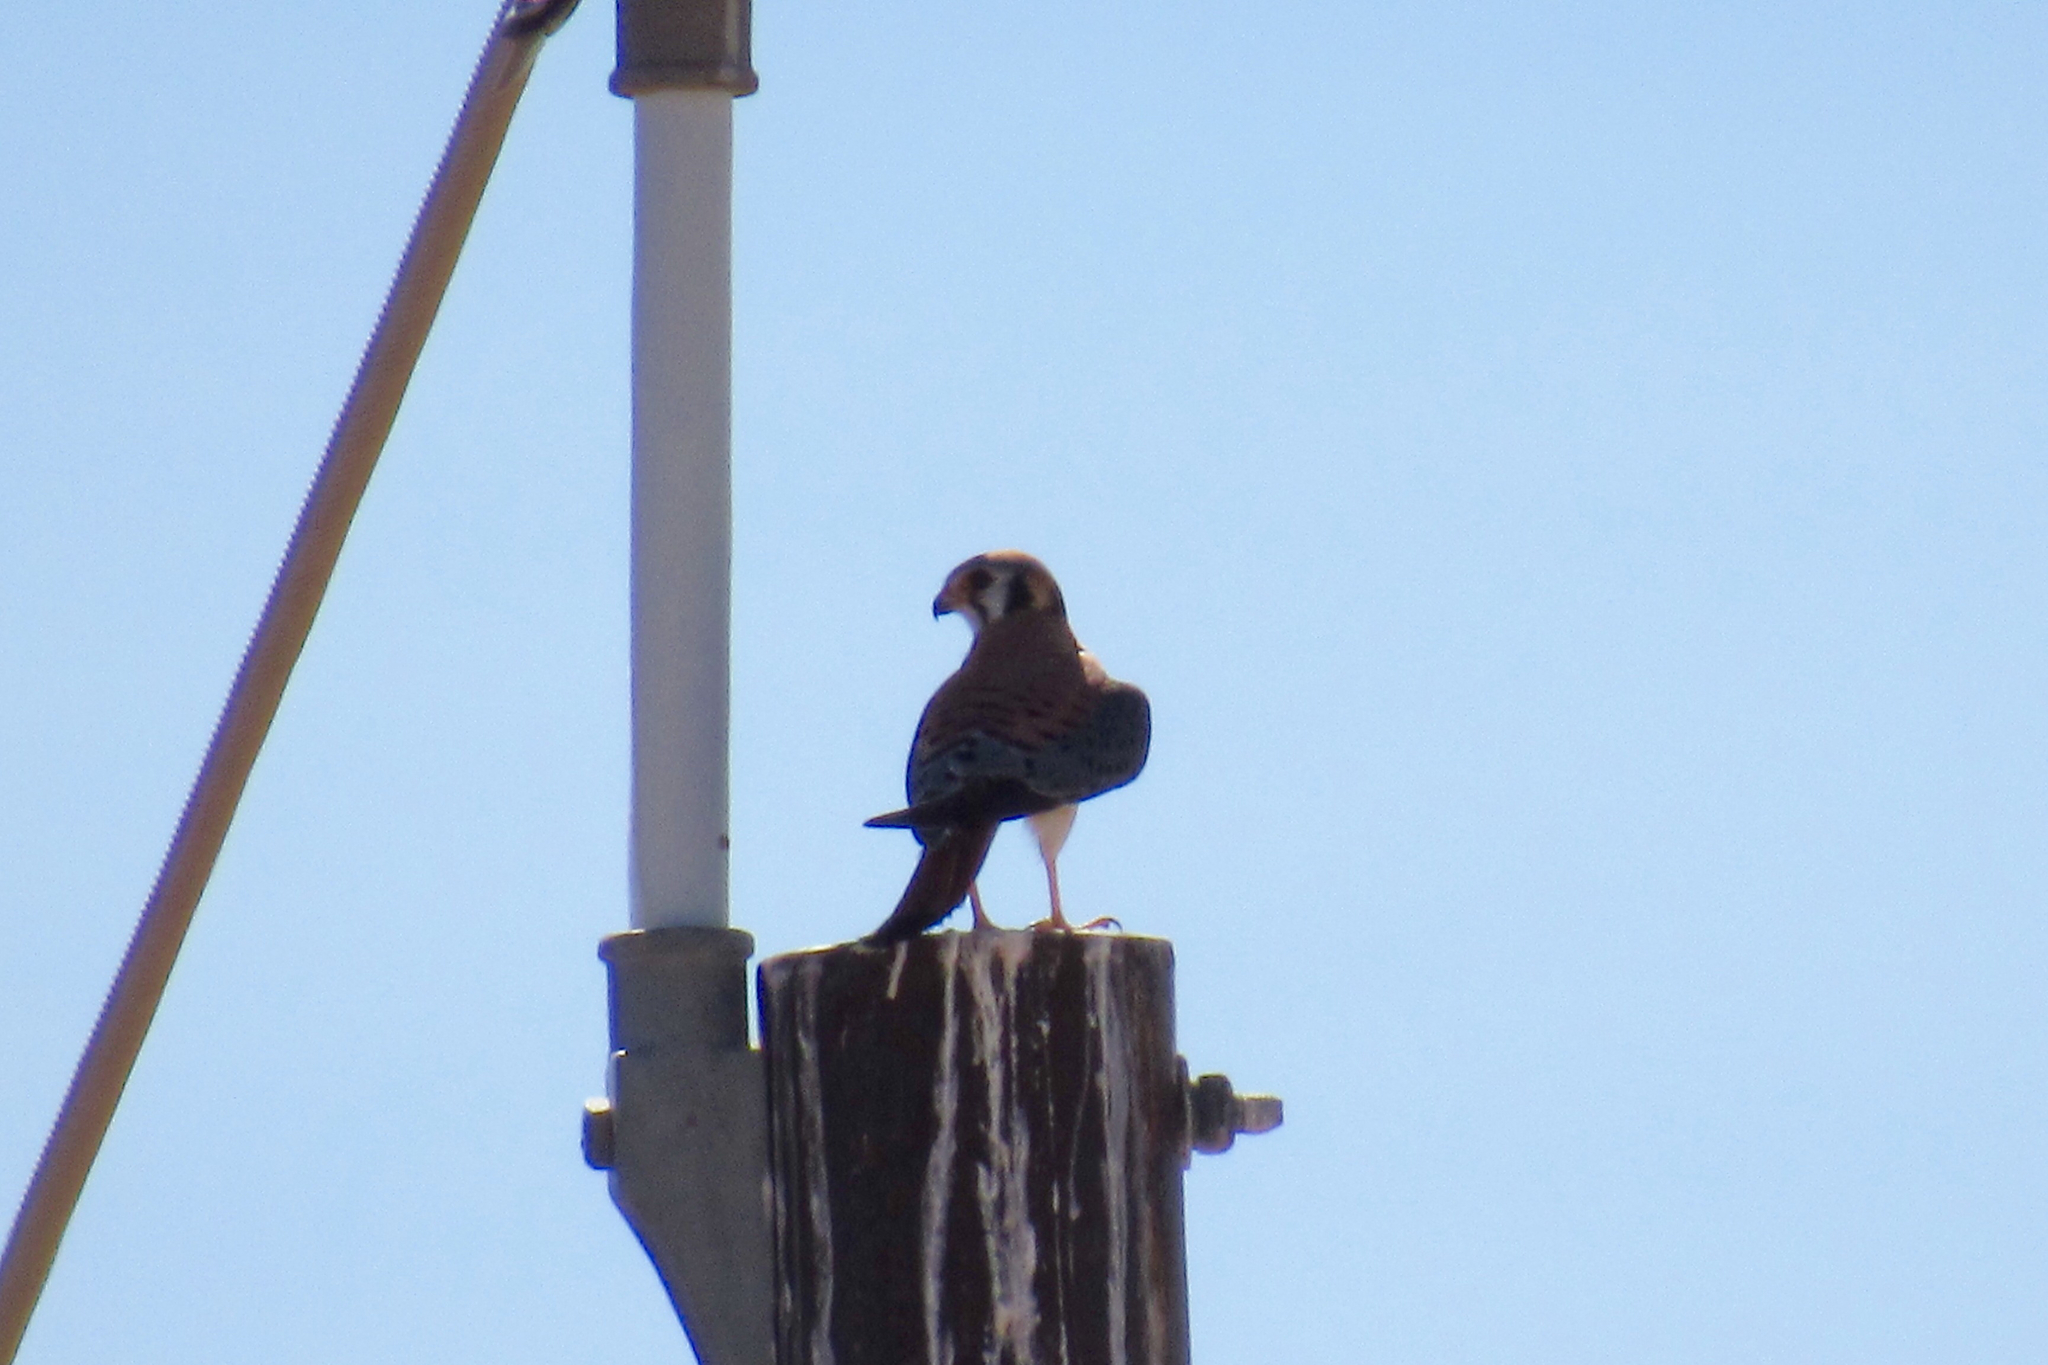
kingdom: Animalia
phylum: Chordata
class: Aves
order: Falconiformes
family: Falconidae
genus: Falco
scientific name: Falco sparverius
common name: American kestrel
